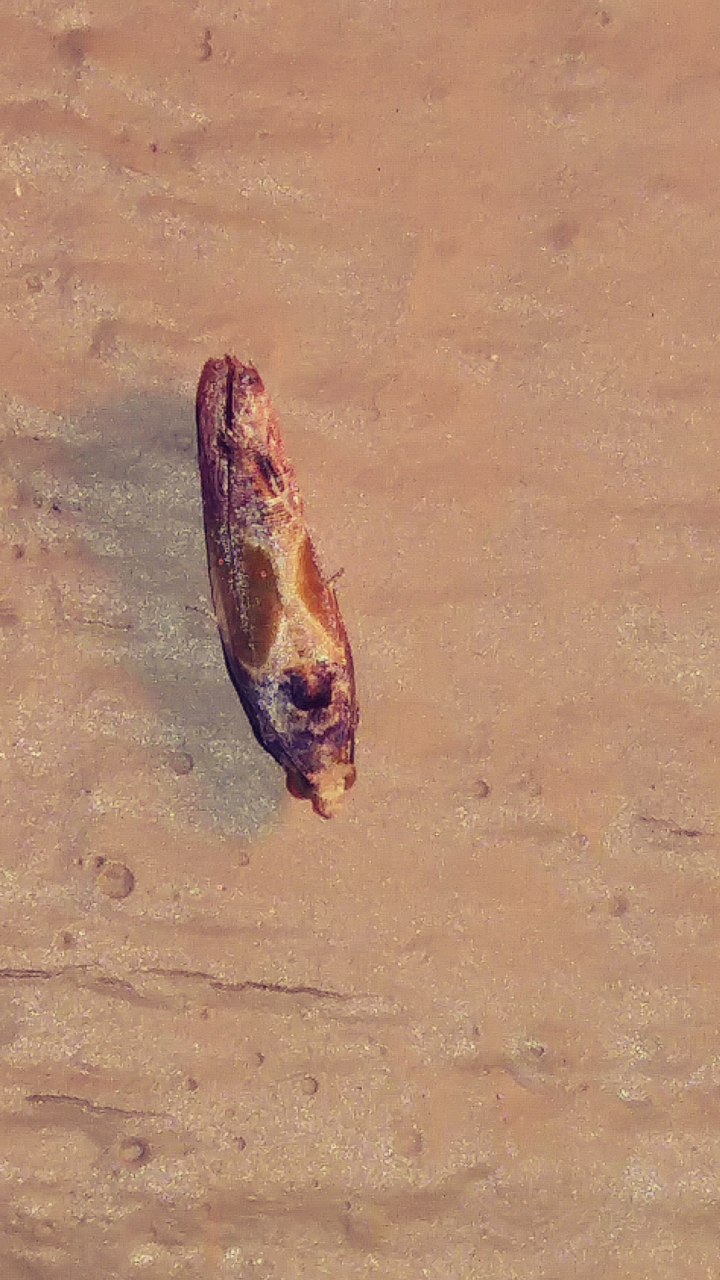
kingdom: Animalia
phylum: Arthropoda
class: Insecta
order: Lepidoptera
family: Tortricidae
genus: Eumarozia
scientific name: Eumarozia malachitana
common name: Sculptured moth
